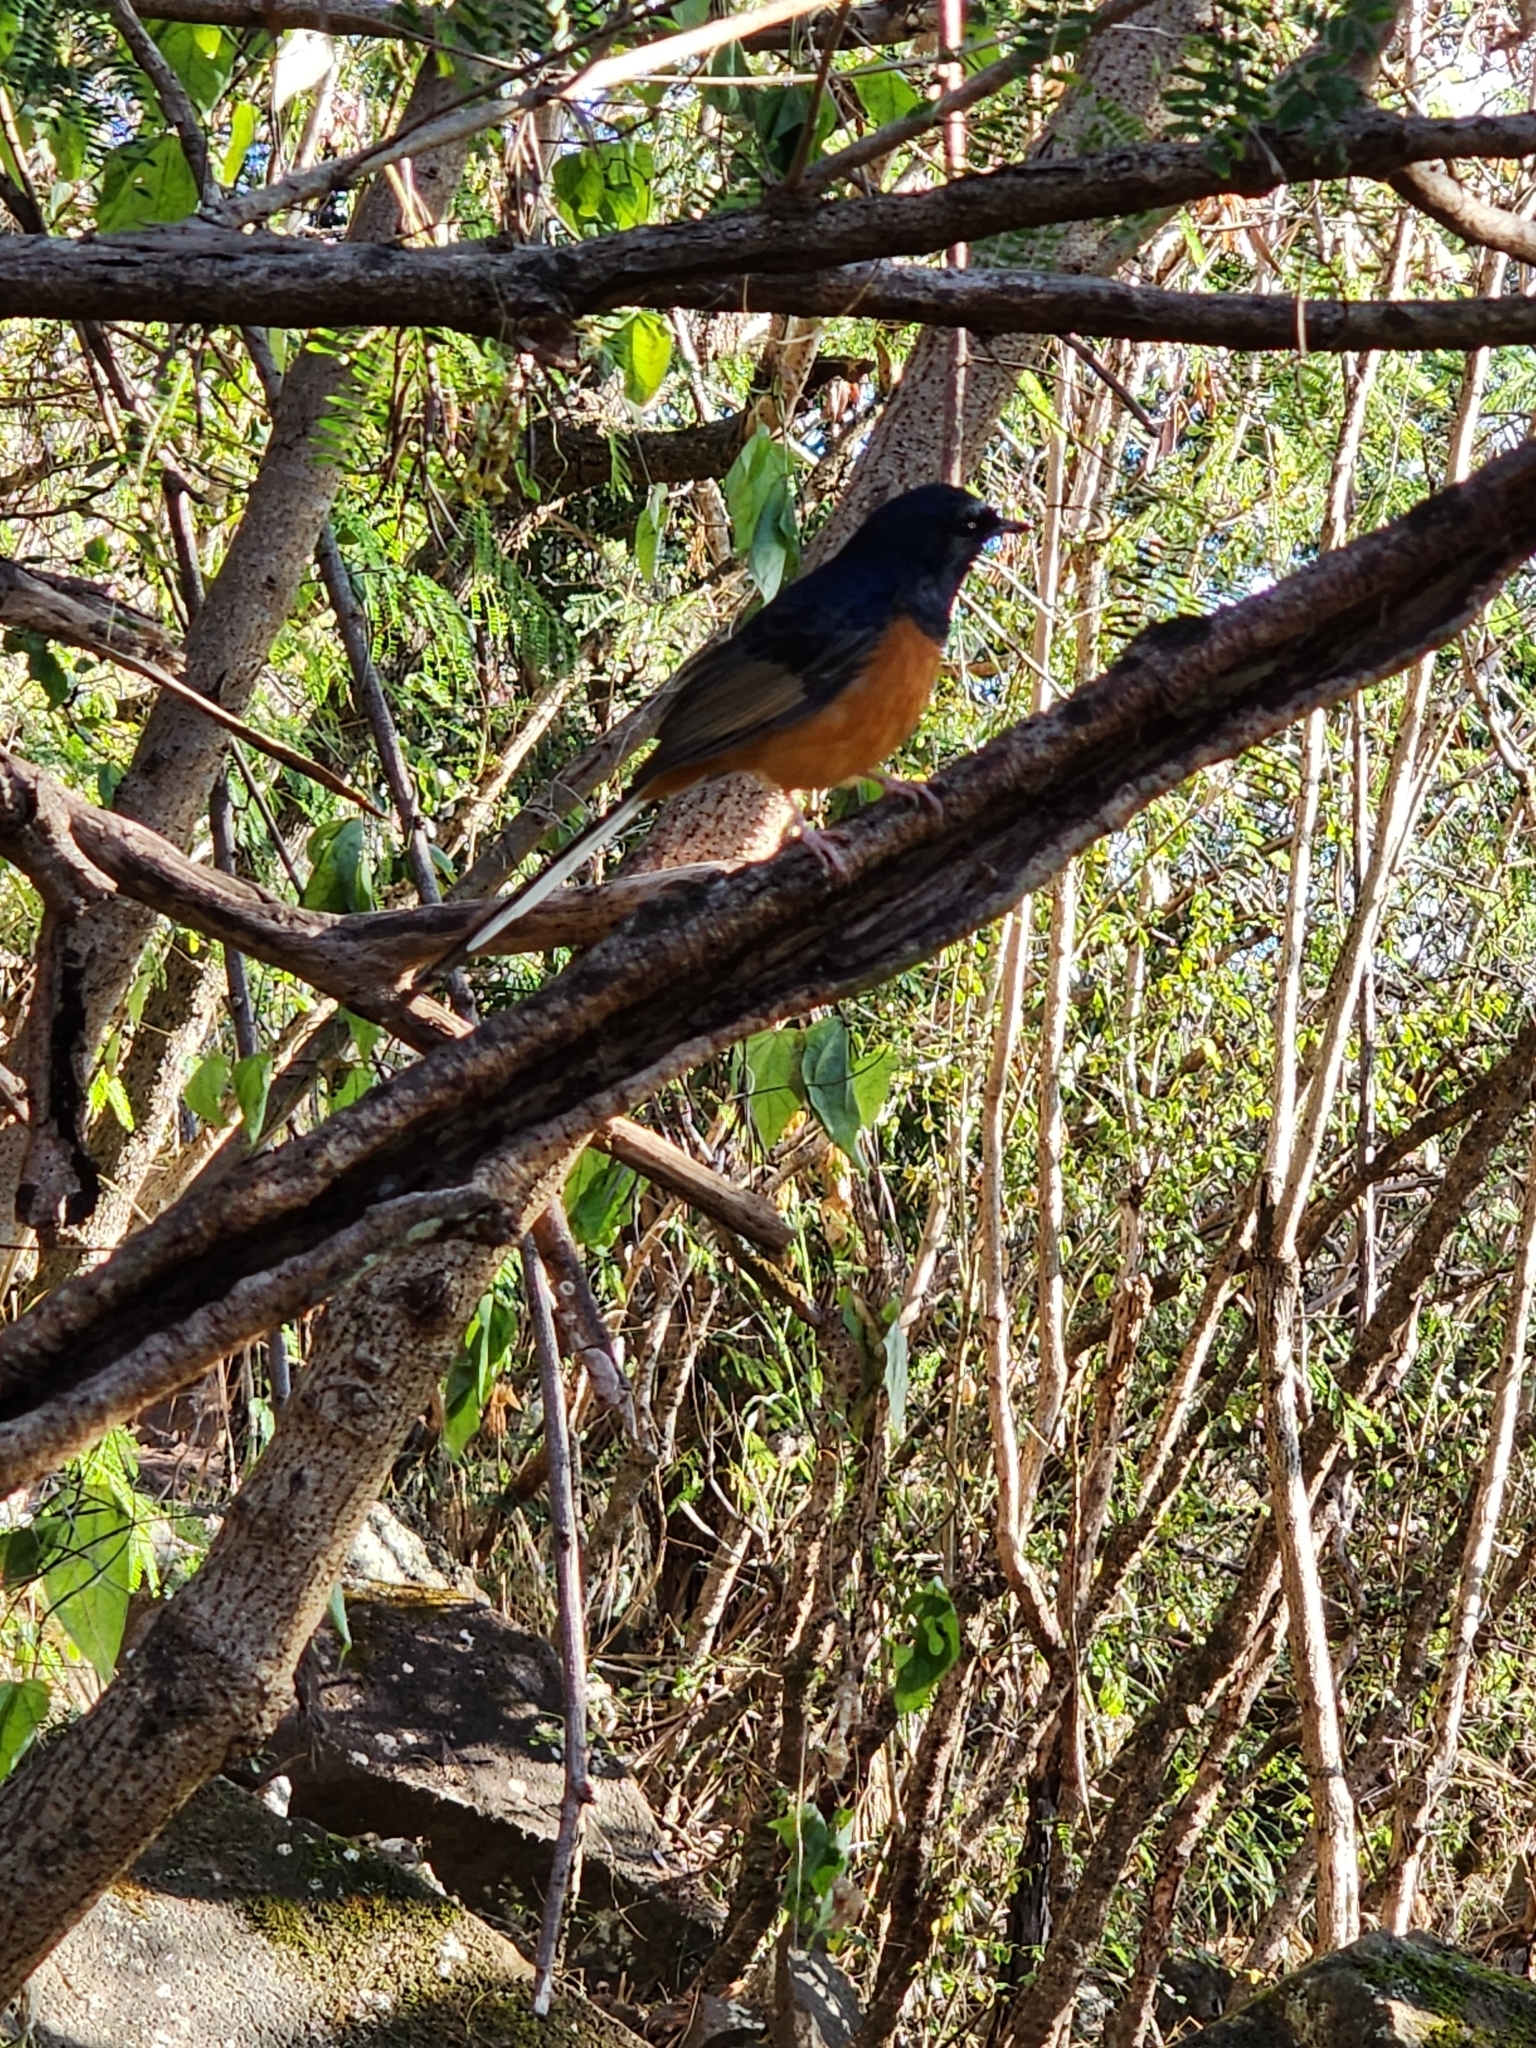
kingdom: Animalia
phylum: Chordata
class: Aves
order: Passeriformes
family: Muscicapidae
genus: Copsychus
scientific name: Copsychus malabaricus
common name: White-rumped shama
